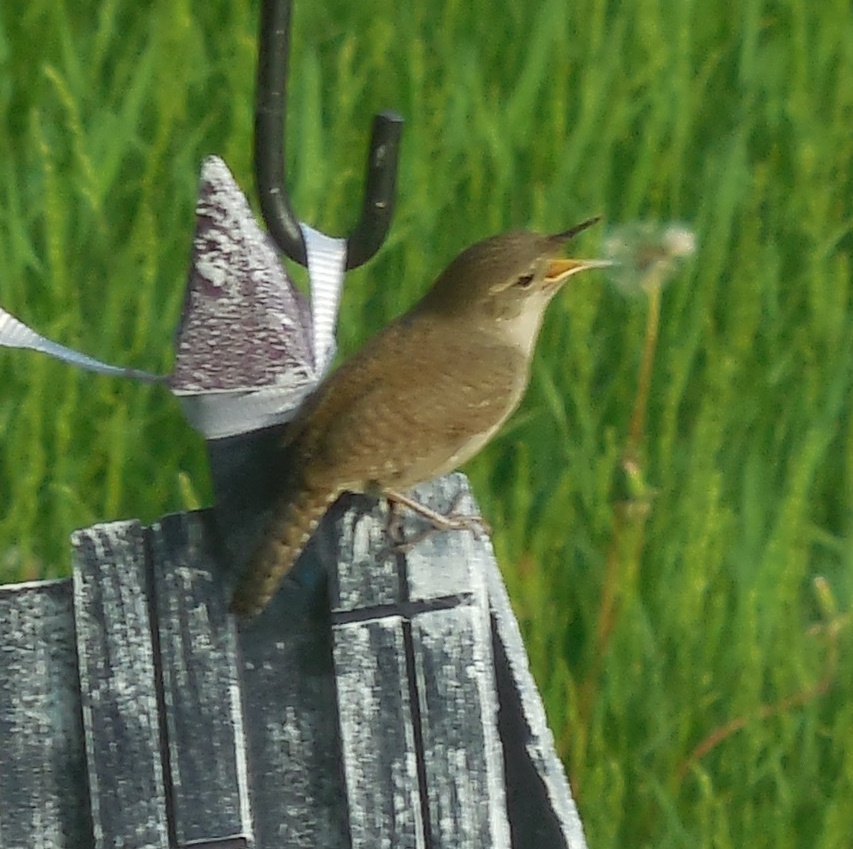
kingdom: Animalia
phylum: Chordata
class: Aves
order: Passeriformes
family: Troglodytidae
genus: Troglodytes
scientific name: Troglodytes aedon
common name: House wren
